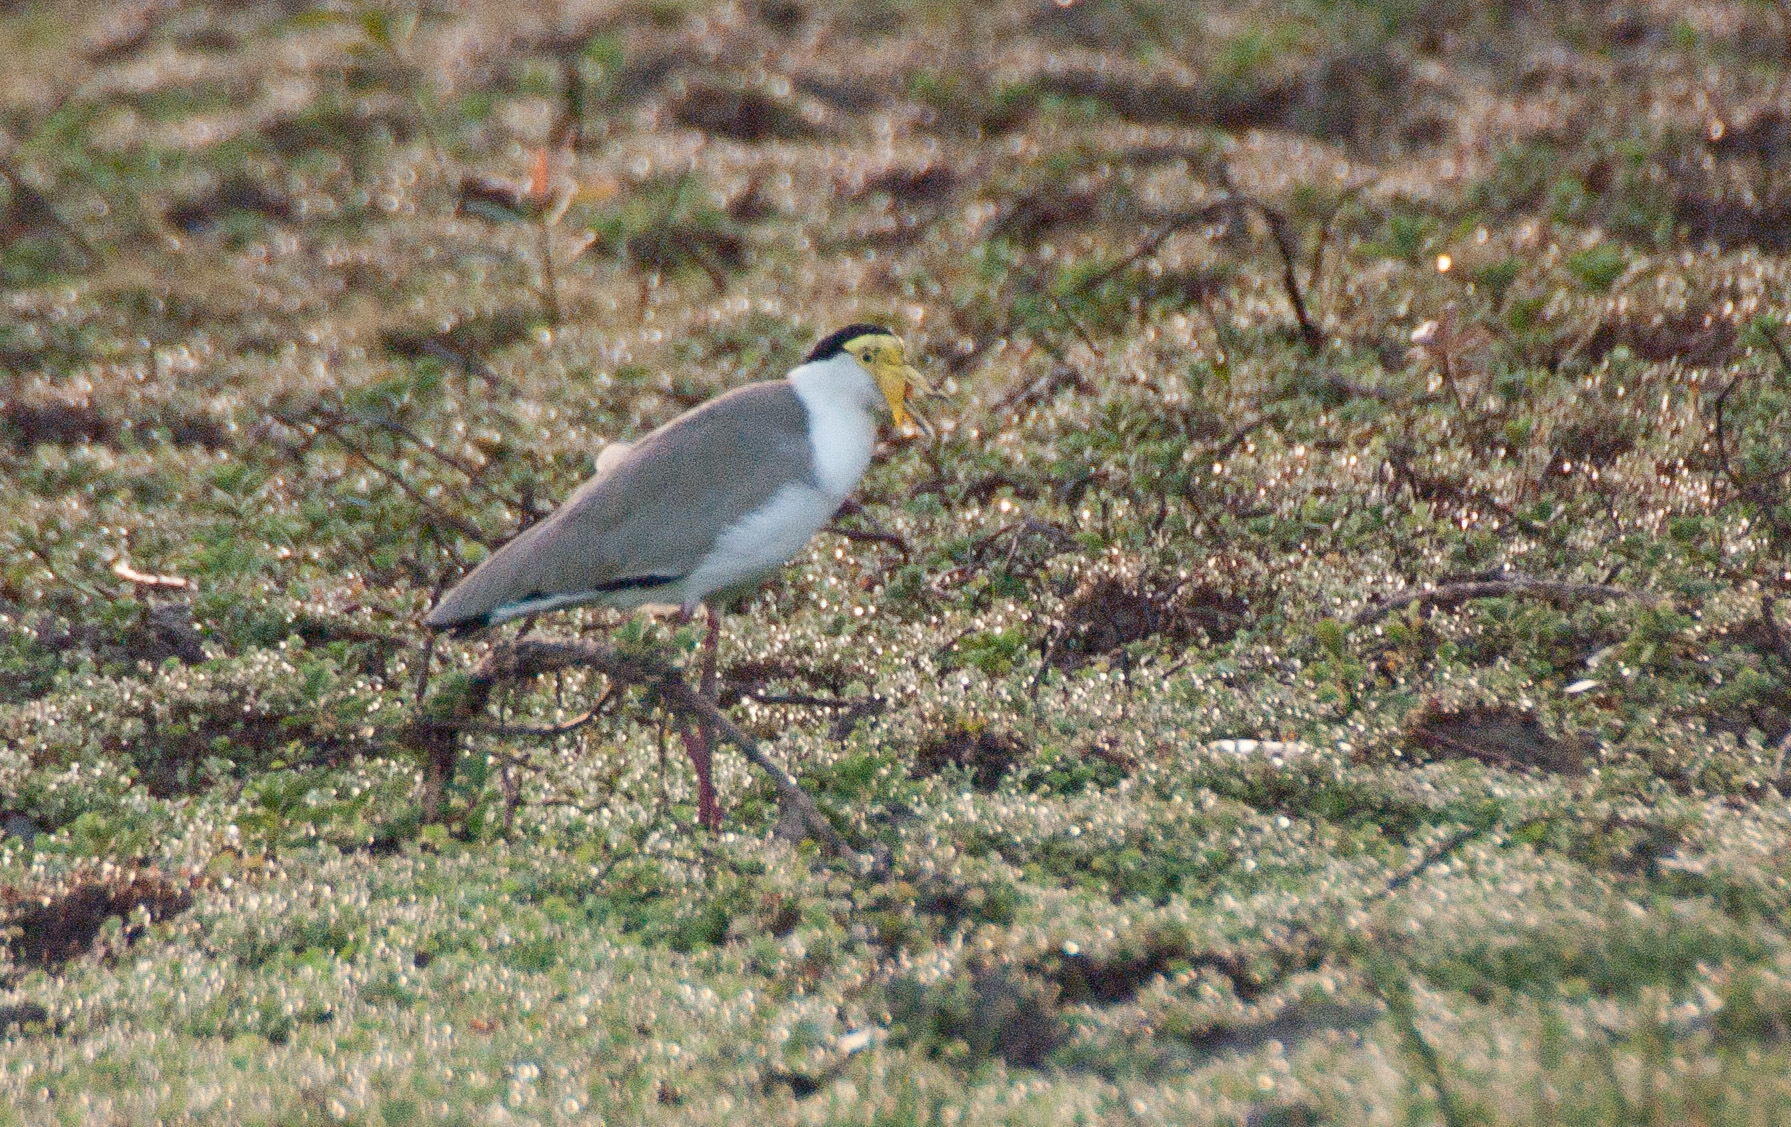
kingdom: Animalia
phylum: Chordata
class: Aves
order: Charadriiformes
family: Charadriidae
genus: Vanellus
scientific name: Vanellus miles
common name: Masked lapwing
